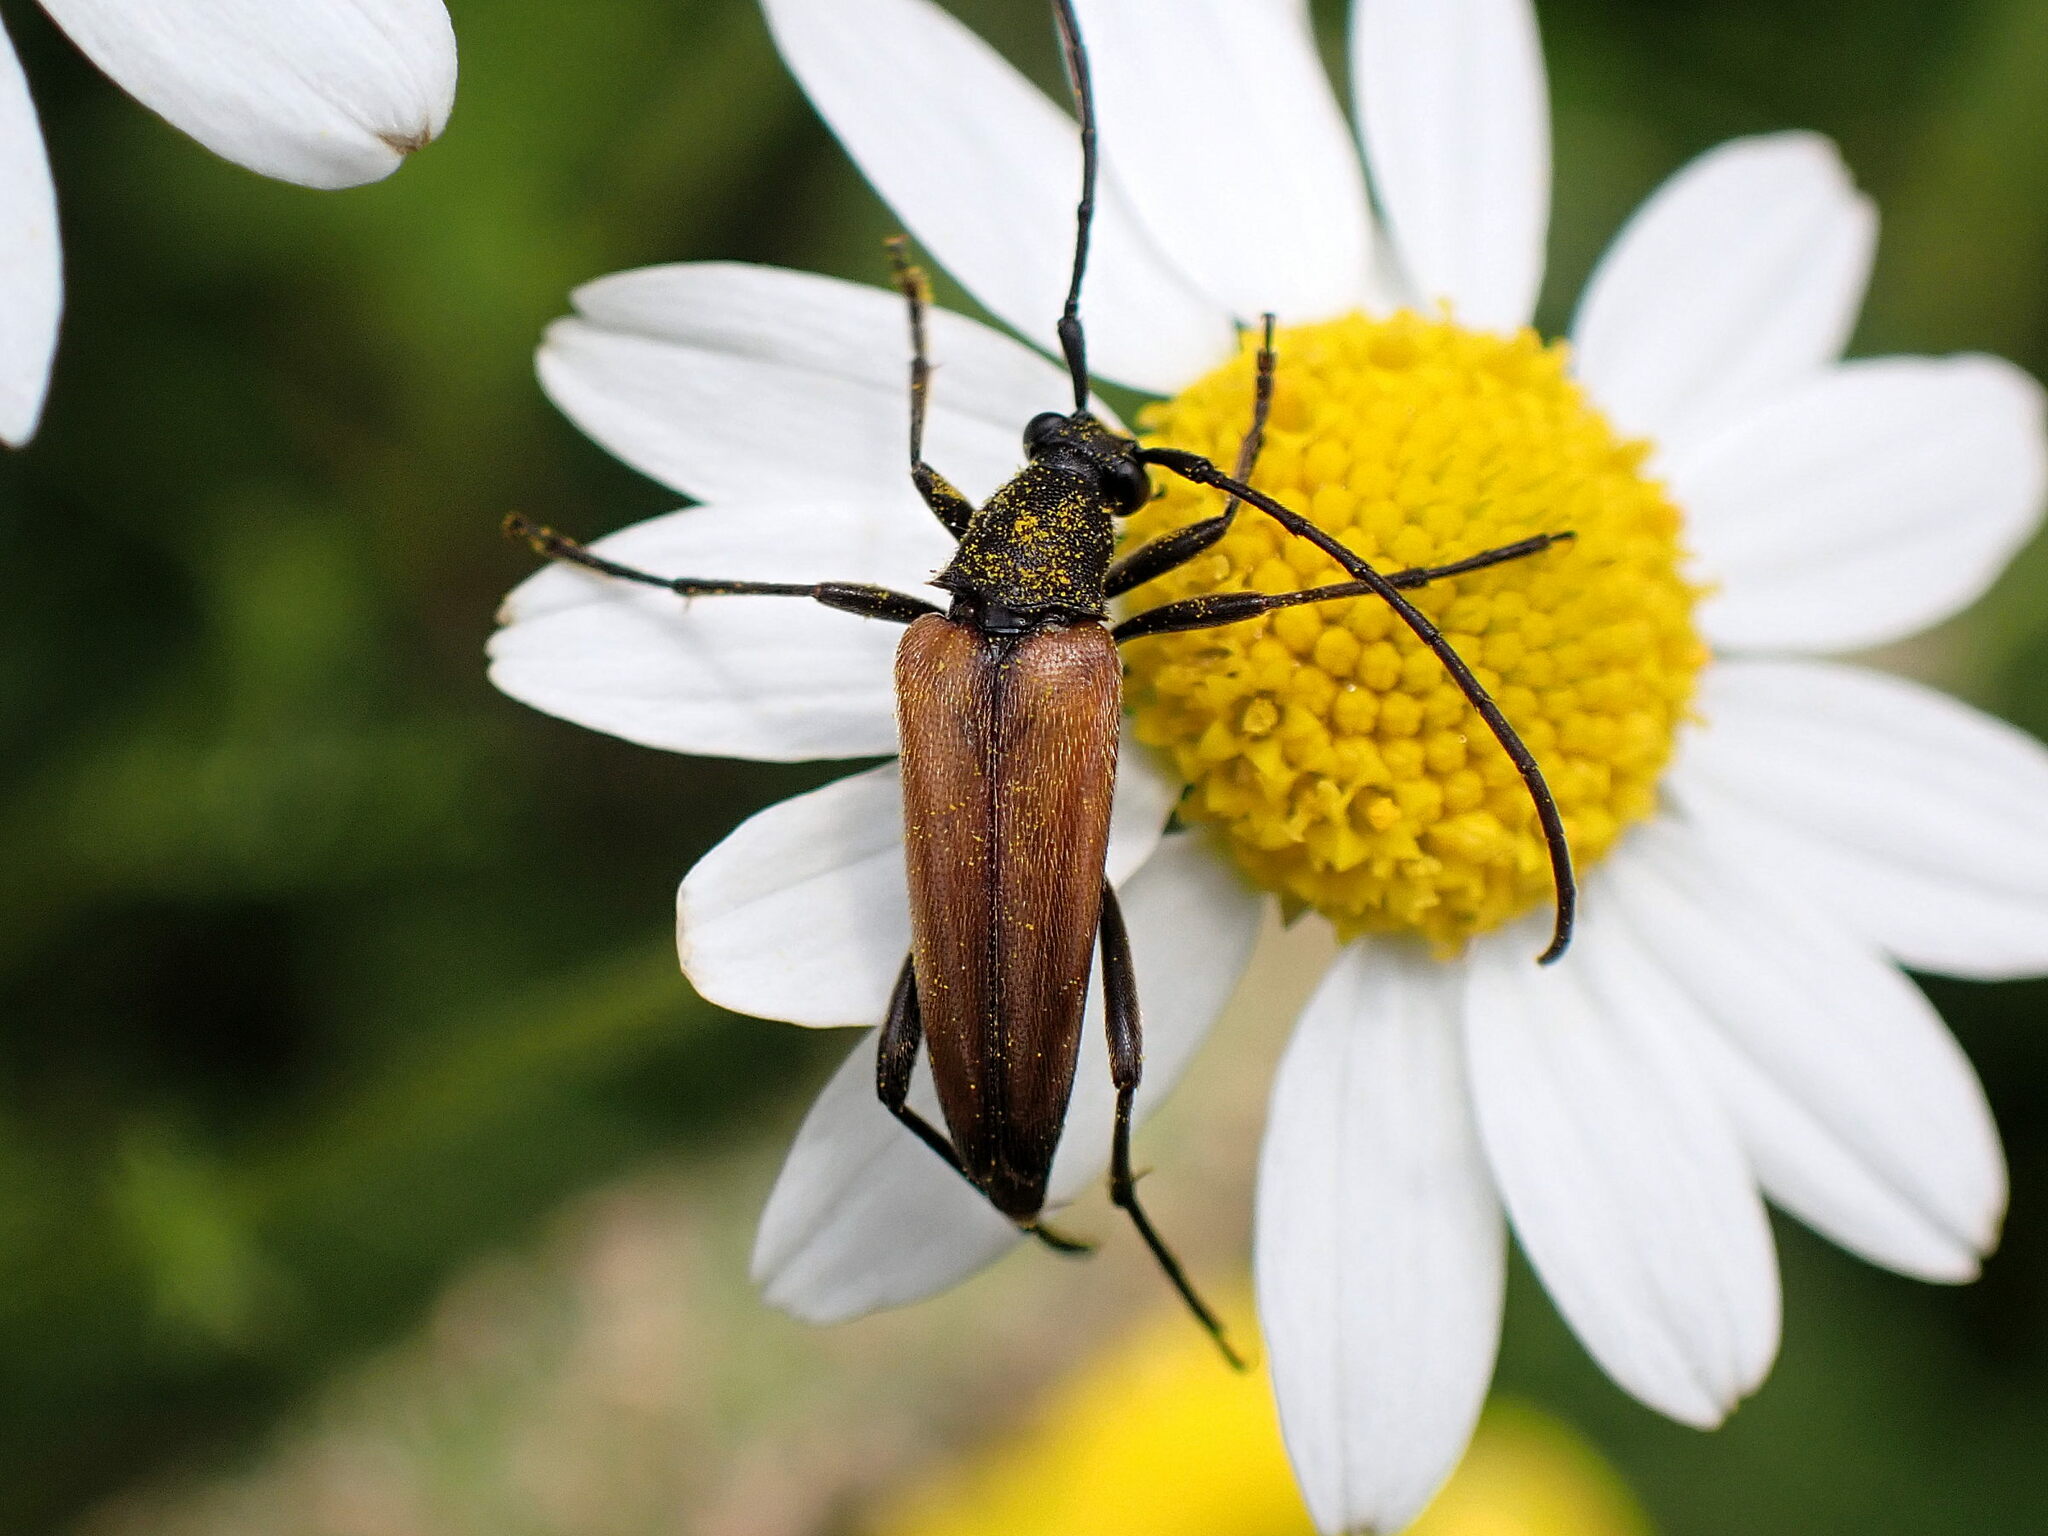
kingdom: Animalia
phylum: Arthropoda
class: Insecta
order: Coleoptera
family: Cerambycidae
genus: Stenurella
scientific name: Stenurella melanura
